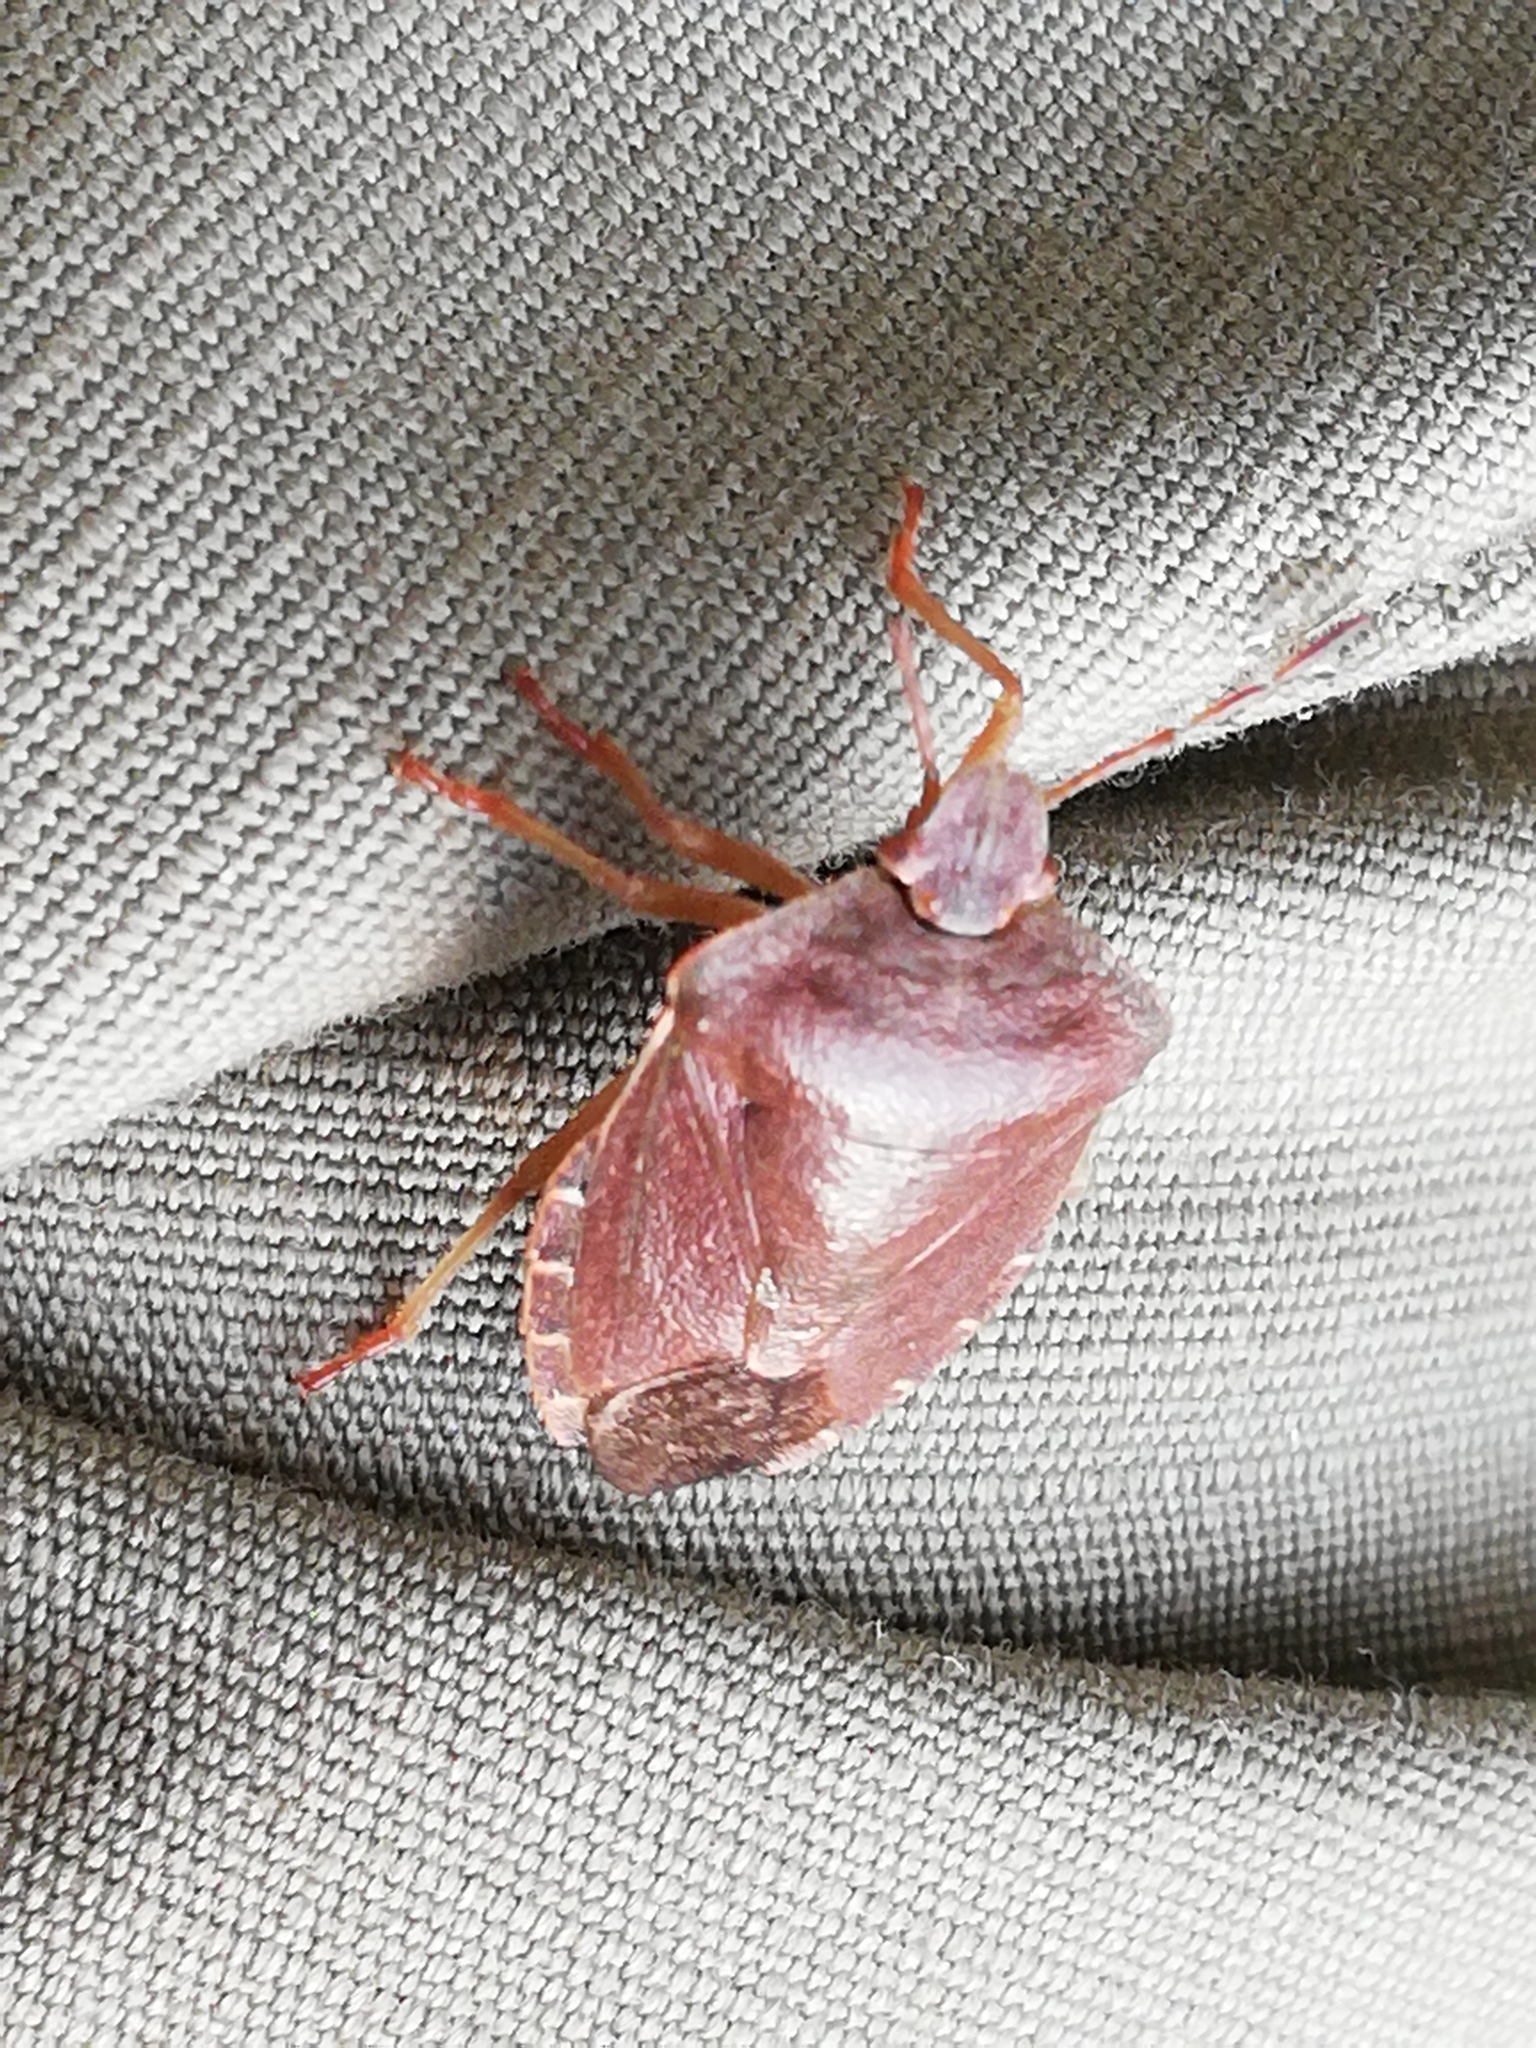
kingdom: Animalia
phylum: Arthropoda
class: Insecta
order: Hemiptera
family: Pentatomidae
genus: Palomena
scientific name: Palomena prasina
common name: Green shieldbug
